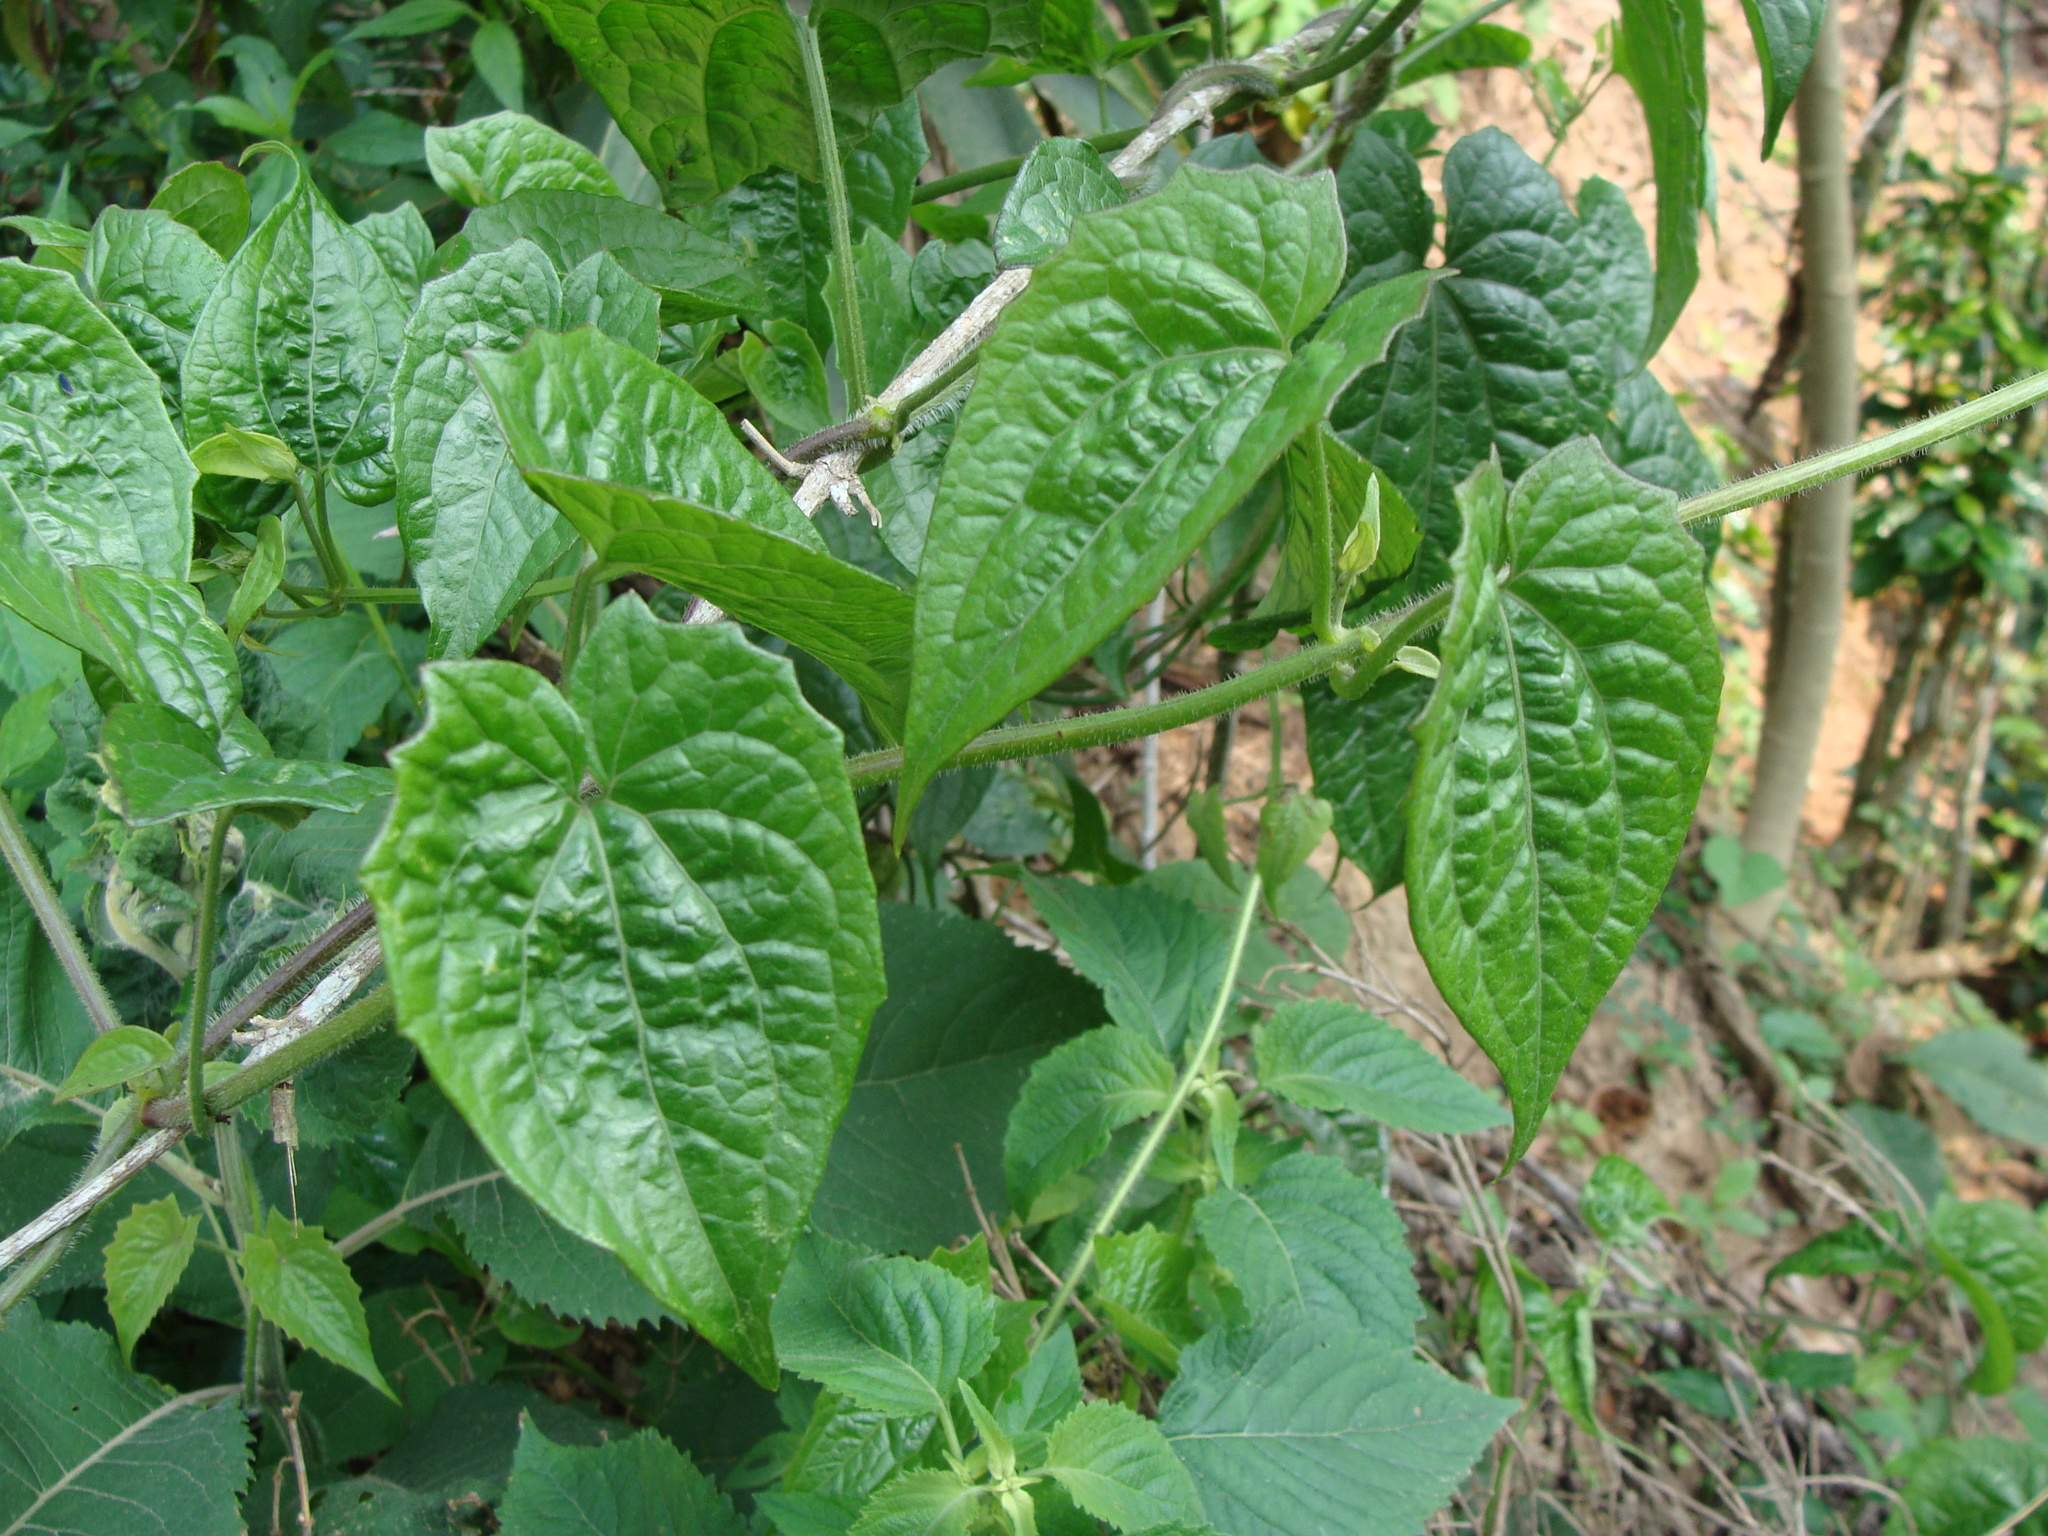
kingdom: Plantae
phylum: Tracheophyta
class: Magnoliopsida
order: Asterales
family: Asteraceae
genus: Mikania
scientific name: Mikania micrantha
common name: Mile-a-minute
